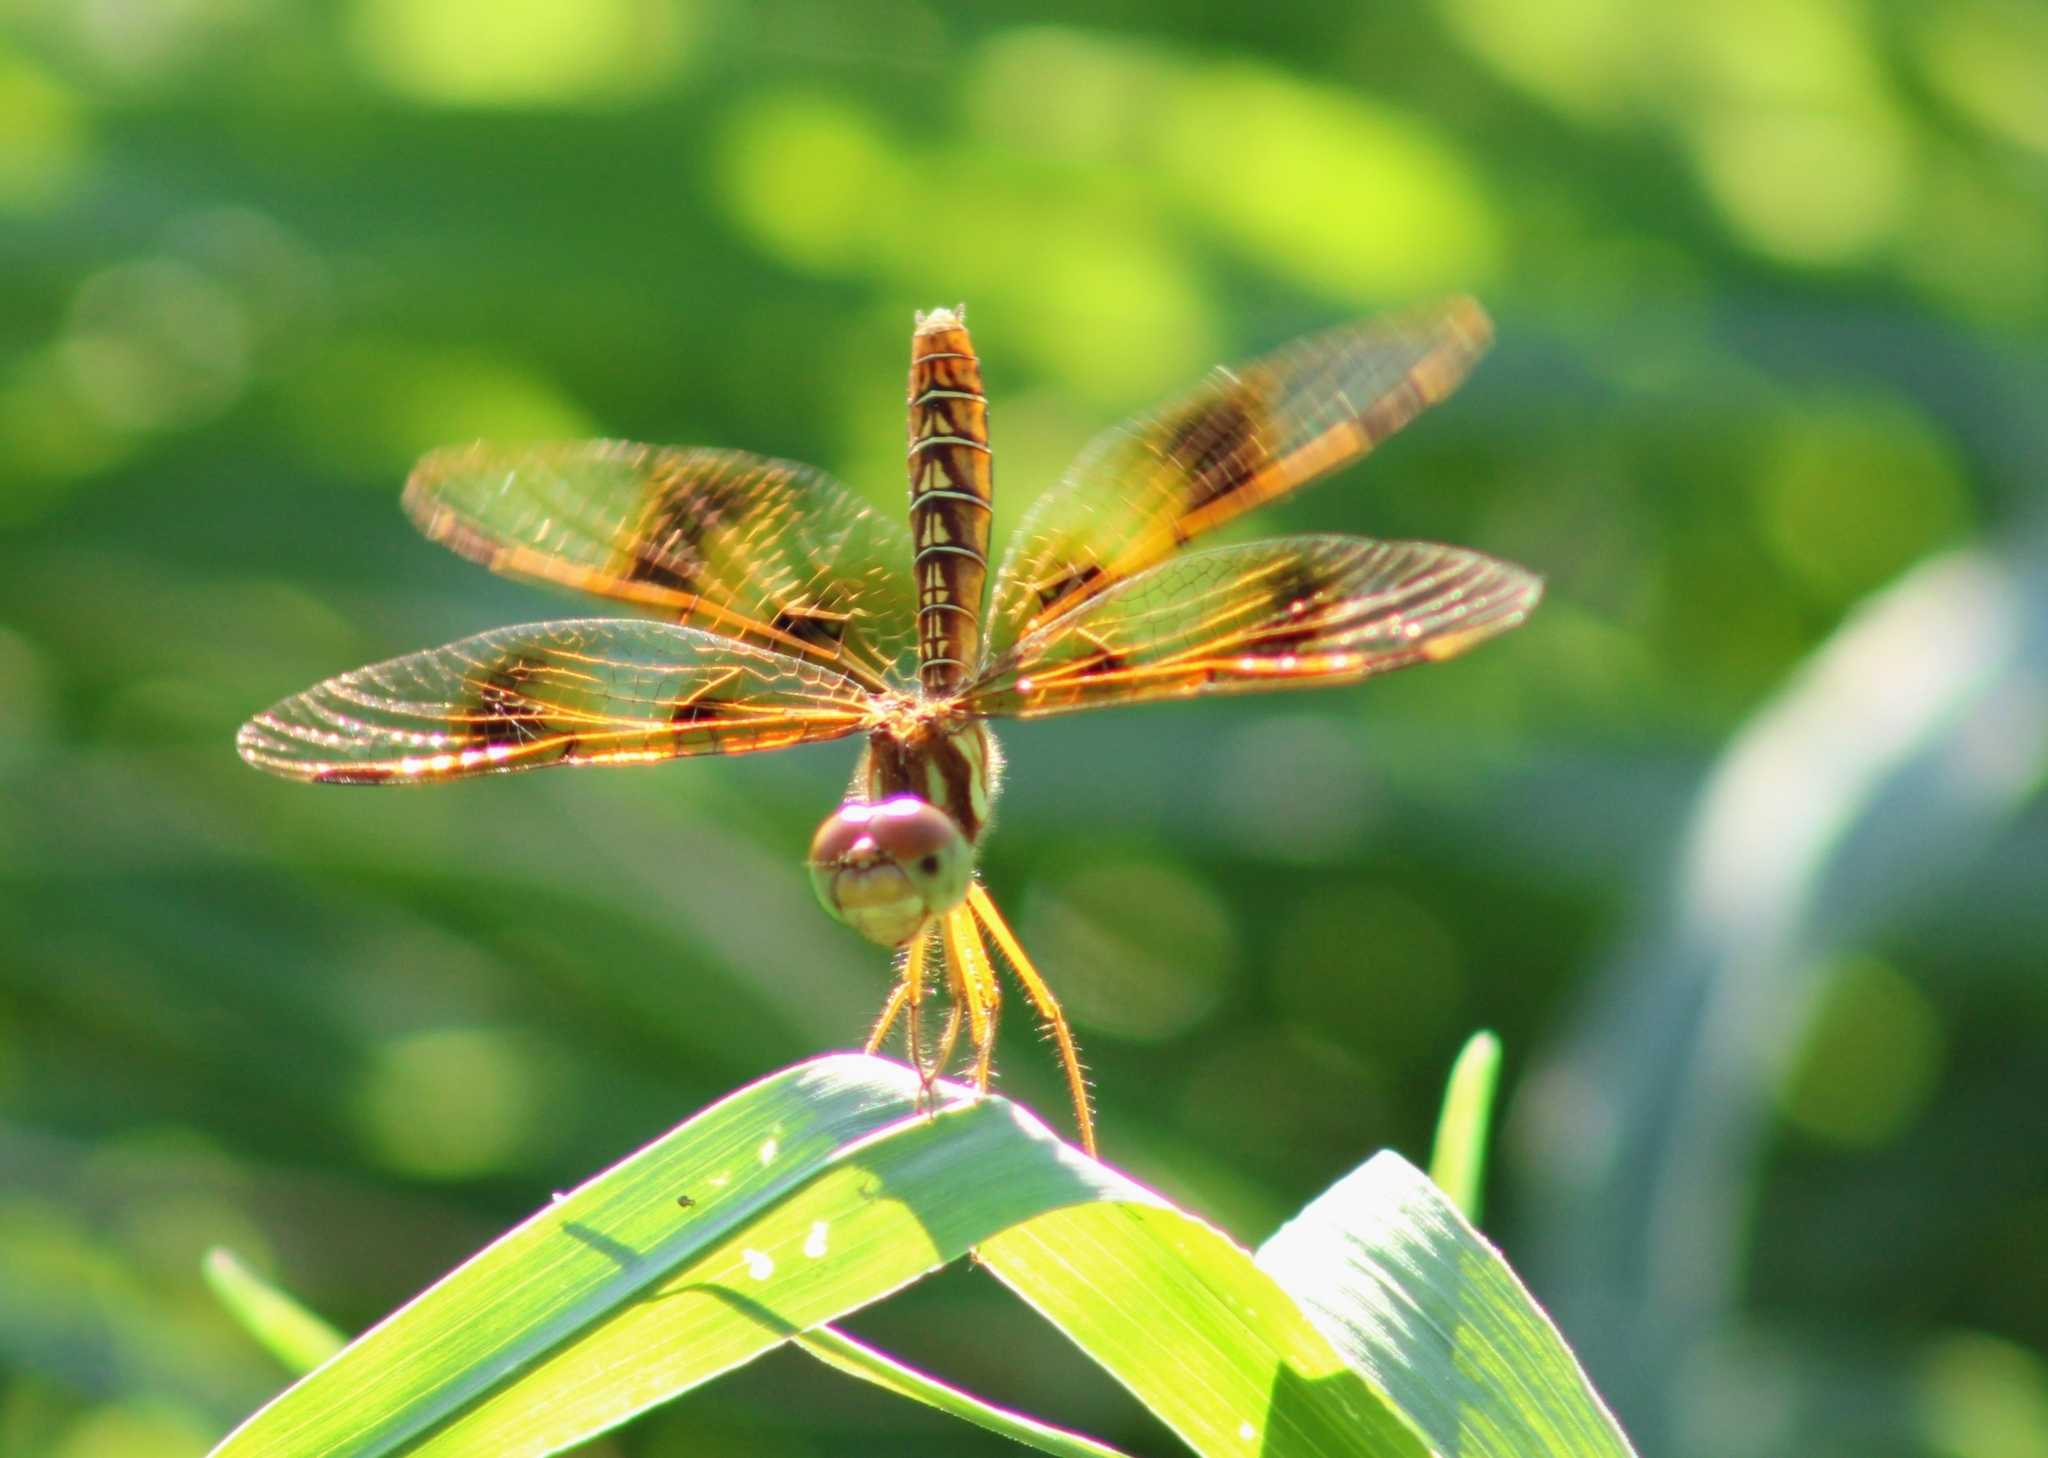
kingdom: Animalia
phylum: Arthropoda
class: Insecta
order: Odonata
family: Libellulidae
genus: Perithemis
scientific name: Perithemis tenera
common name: Eastern amberwing
